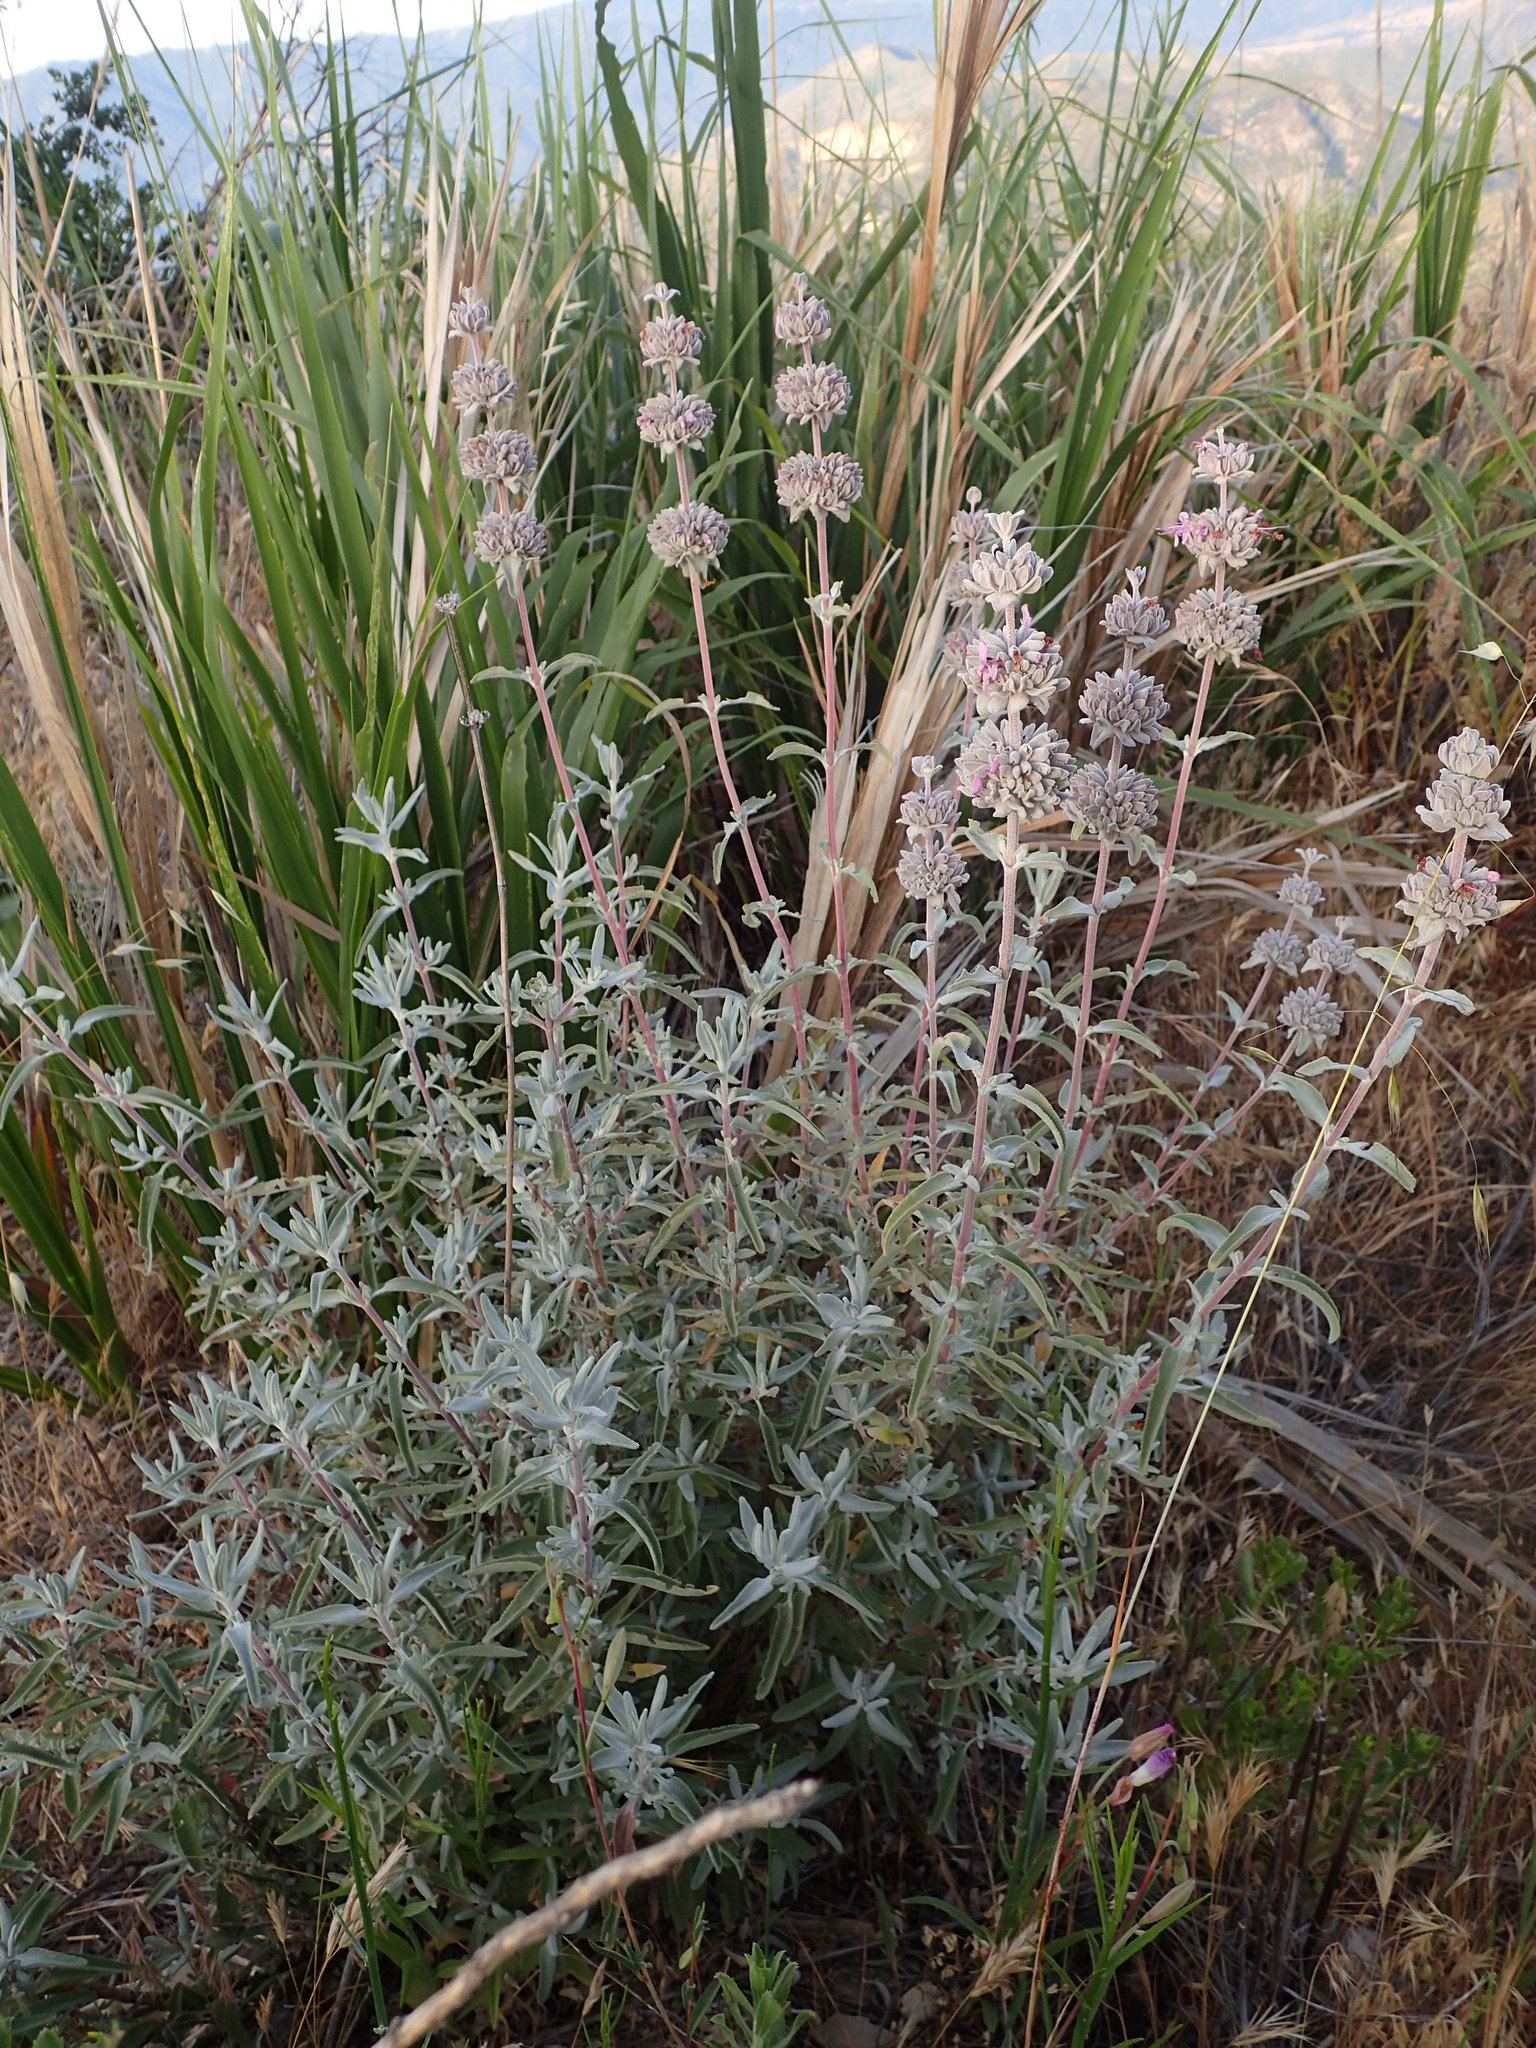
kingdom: Plantae
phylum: Tracheophyta
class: Magnoliopsida
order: Lamiales
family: Lamiaceae
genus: Salvia
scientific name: Salvia leucophylla
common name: Purple sage
